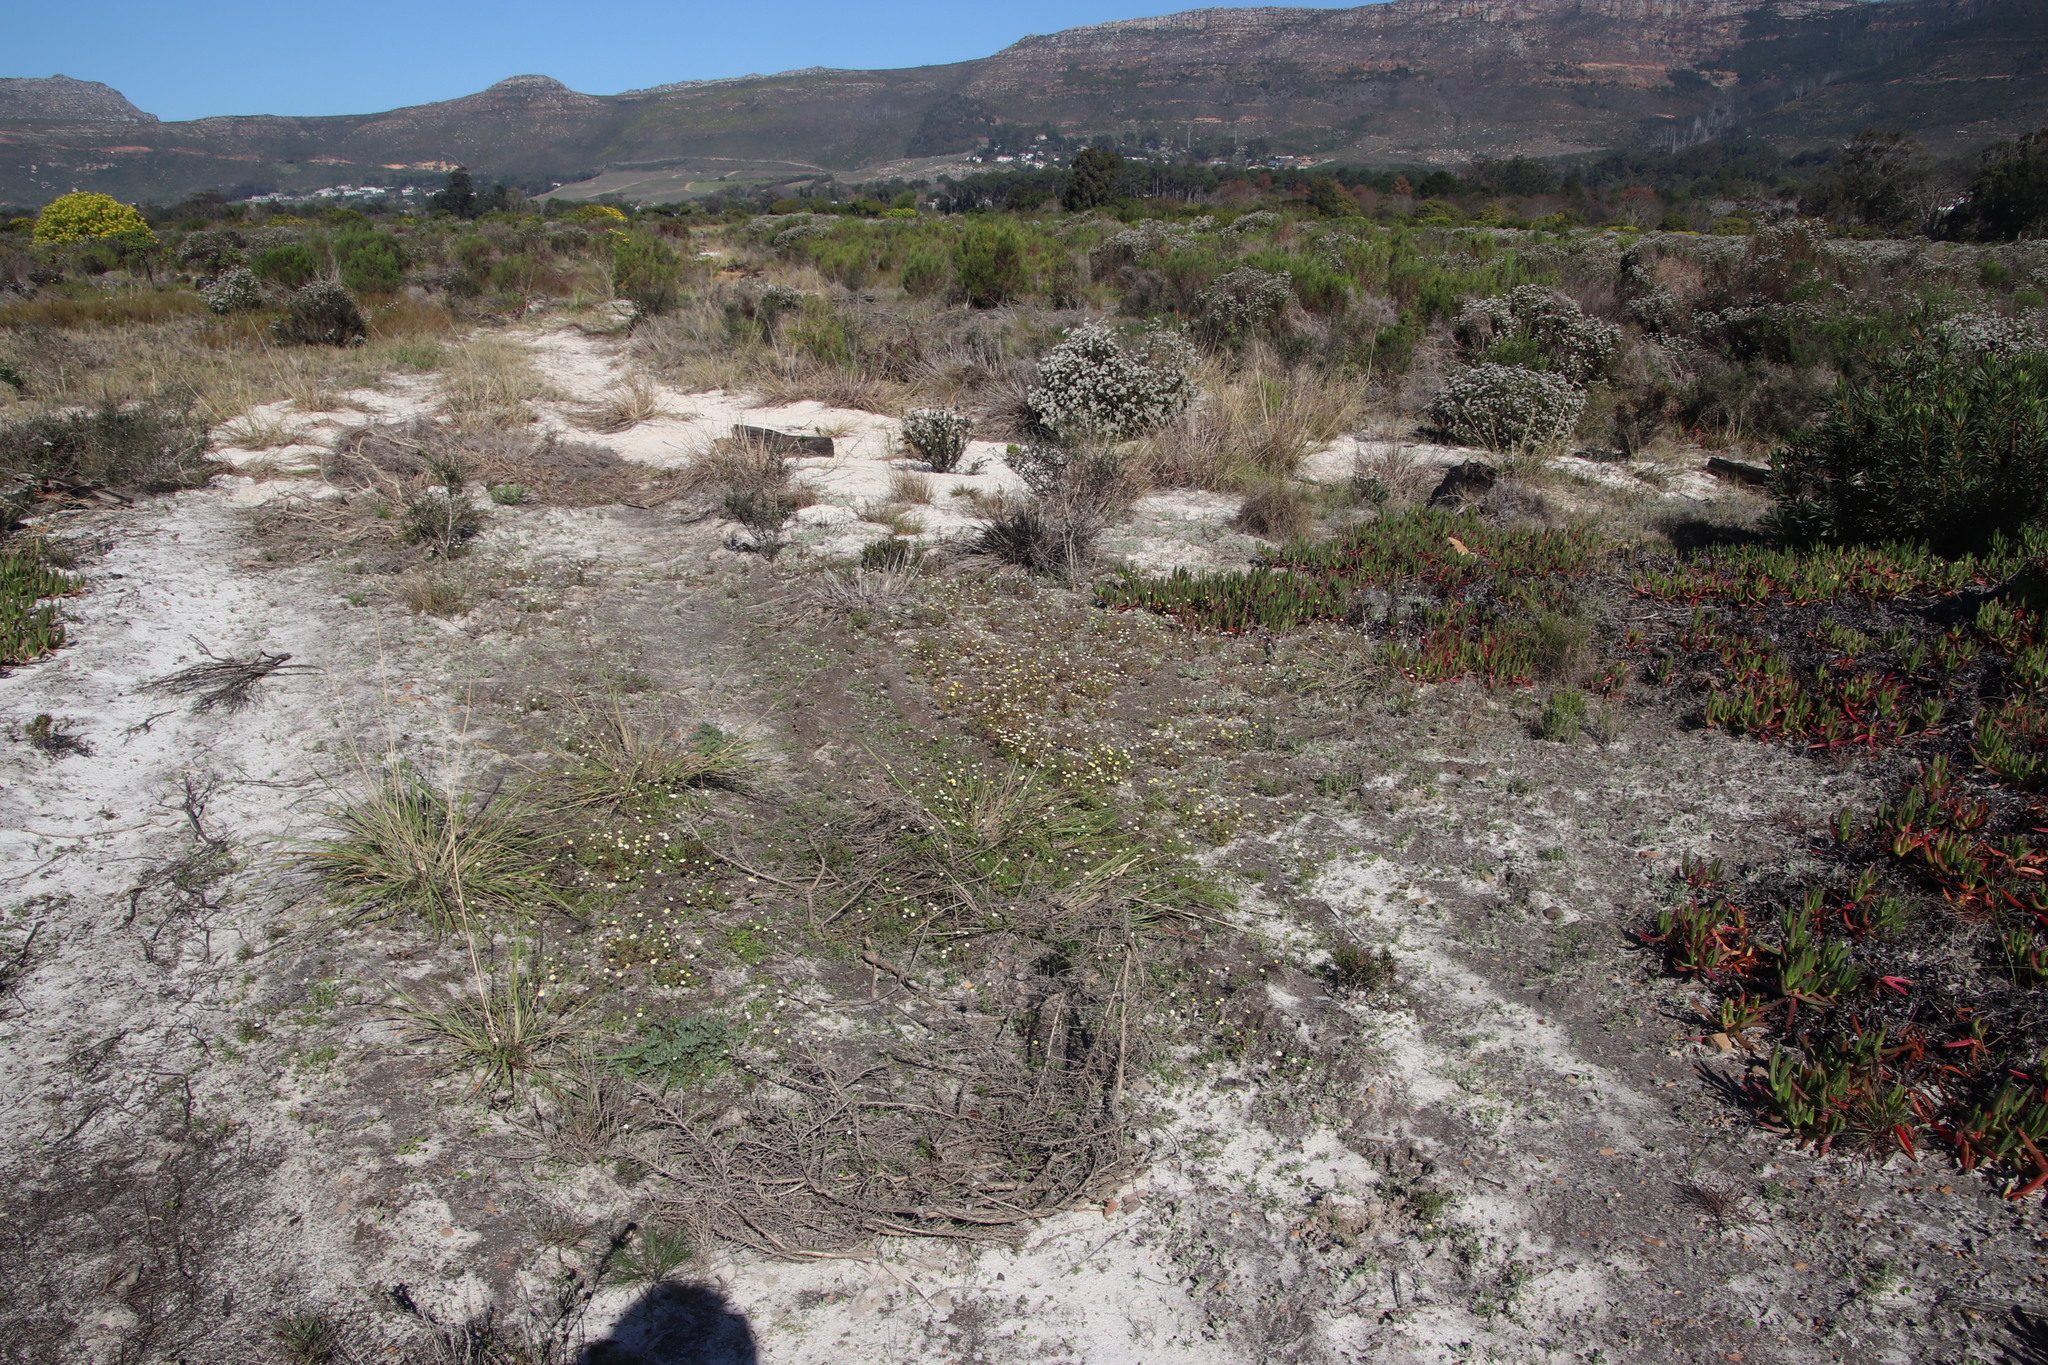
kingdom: Plantae
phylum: Tracheophyta
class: Liliopsida
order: Poales
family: Poaceae
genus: Eragrostis
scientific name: Eragrostis curvula
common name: African love-grass
